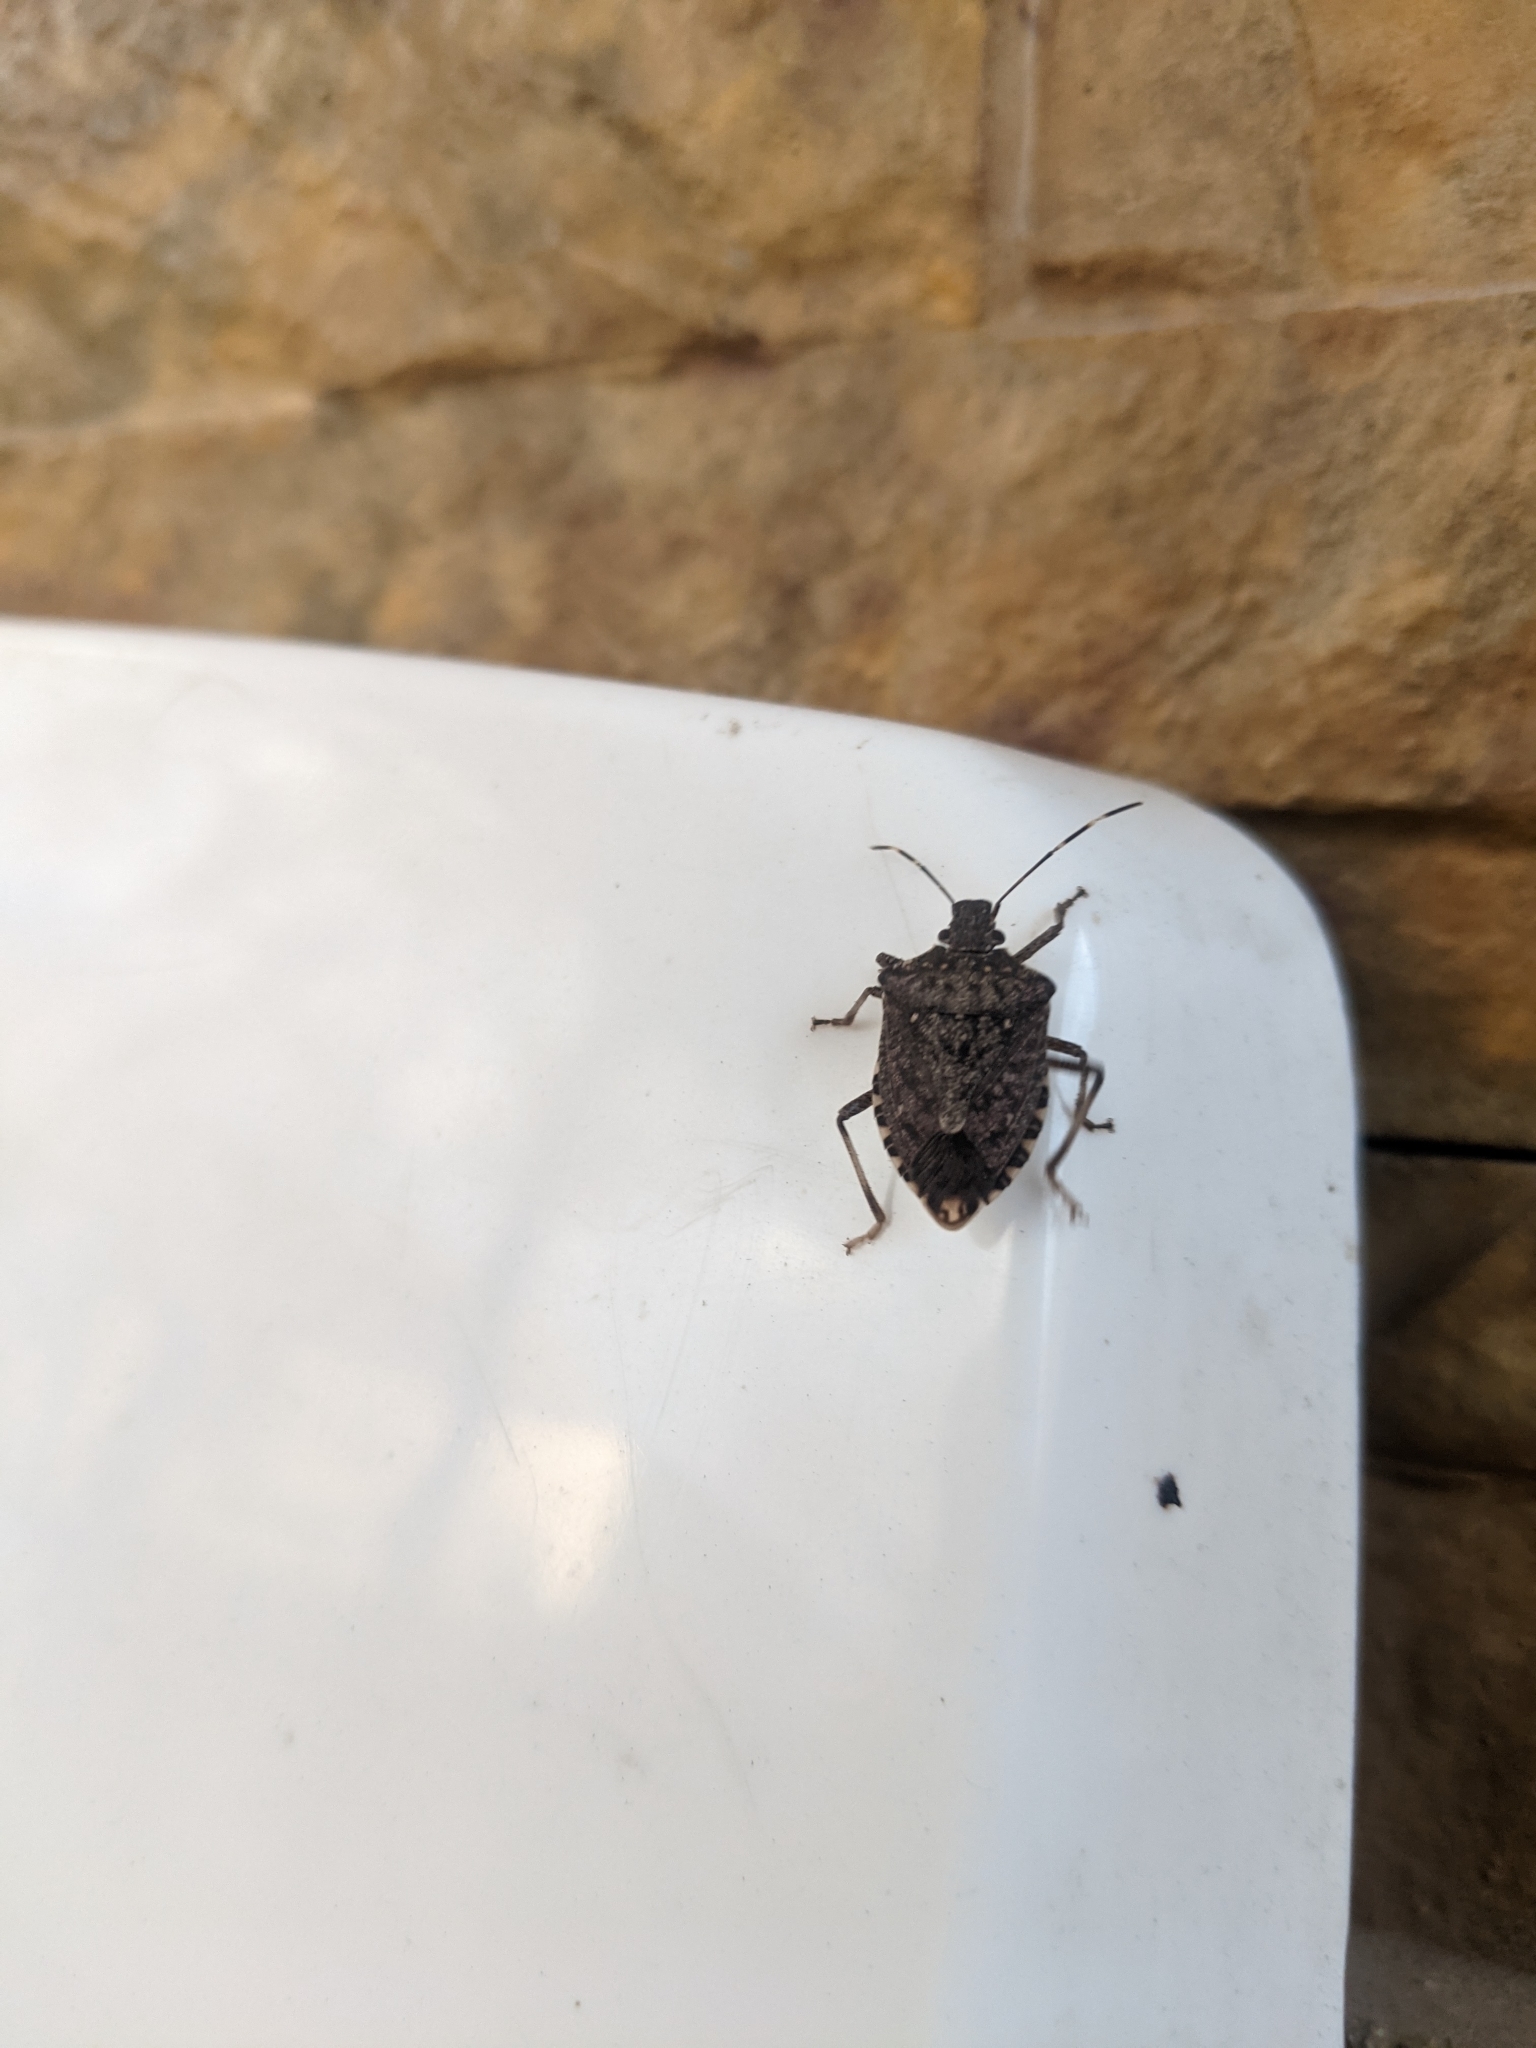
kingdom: Animalia
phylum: Arthropoda
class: Insecta
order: Hemiptera
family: Pentatomidae
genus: Halyomorpha
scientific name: Halyomorpha halys
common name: Brown marmorated stink bug
